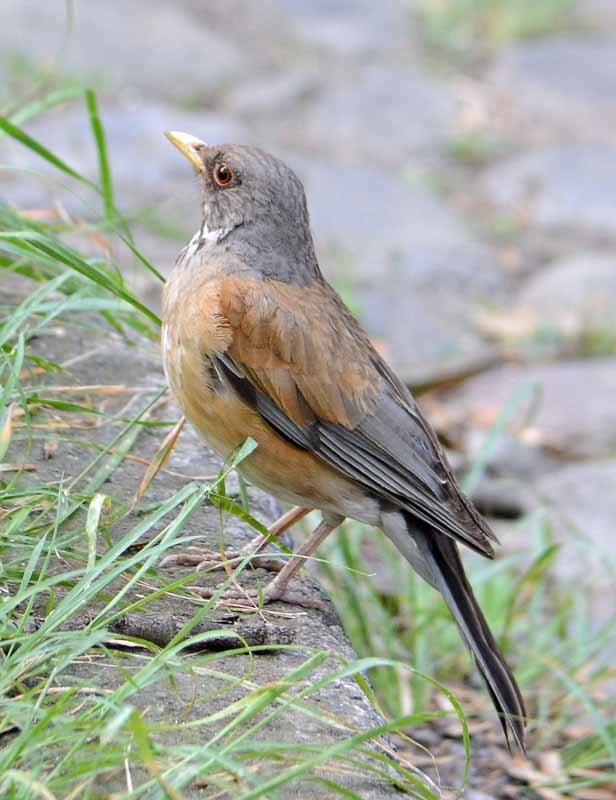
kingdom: Animalia
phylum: Chordata
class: Aves
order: Passeriformes
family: Turdidae
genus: Turdus
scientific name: Turdus rufopalliatus
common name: Rufous-backed robin
